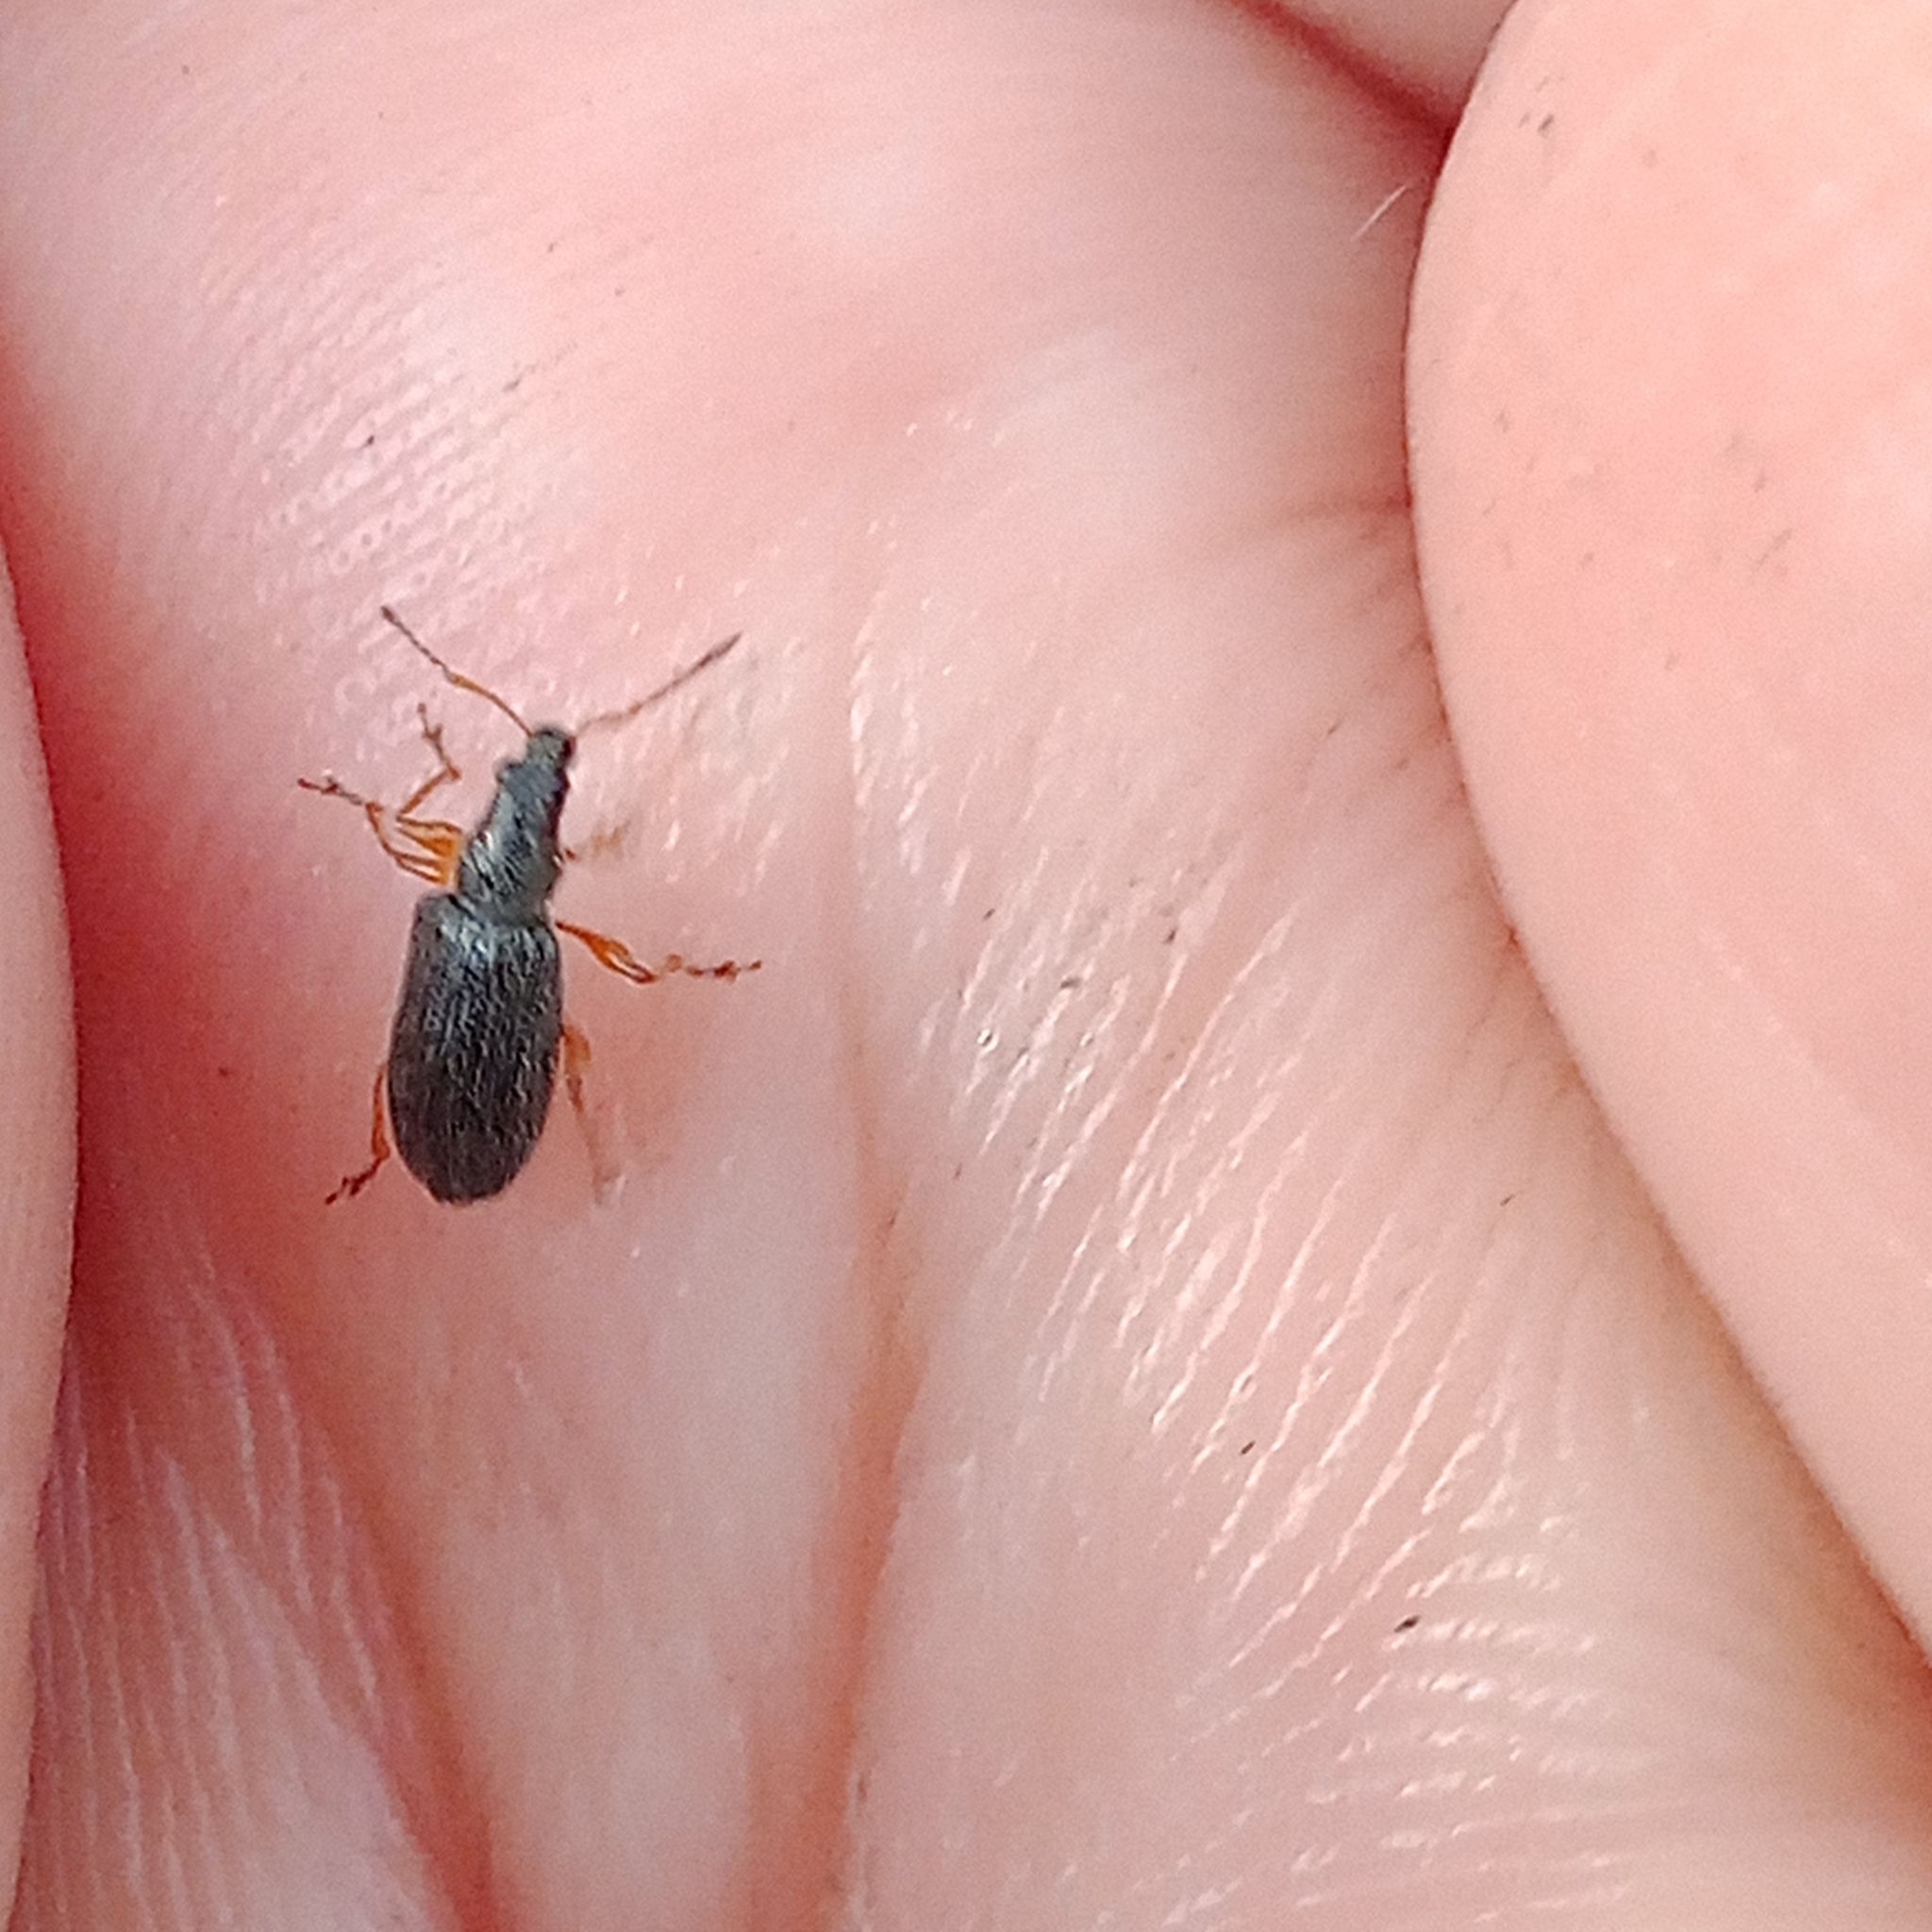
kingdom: Animalia
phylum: Arthropoda
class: Insecta
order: Coleoptera
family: Curculionidae
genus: Phyllobius
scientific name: Phyllobius oblongus
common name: Brown leaf weevil
